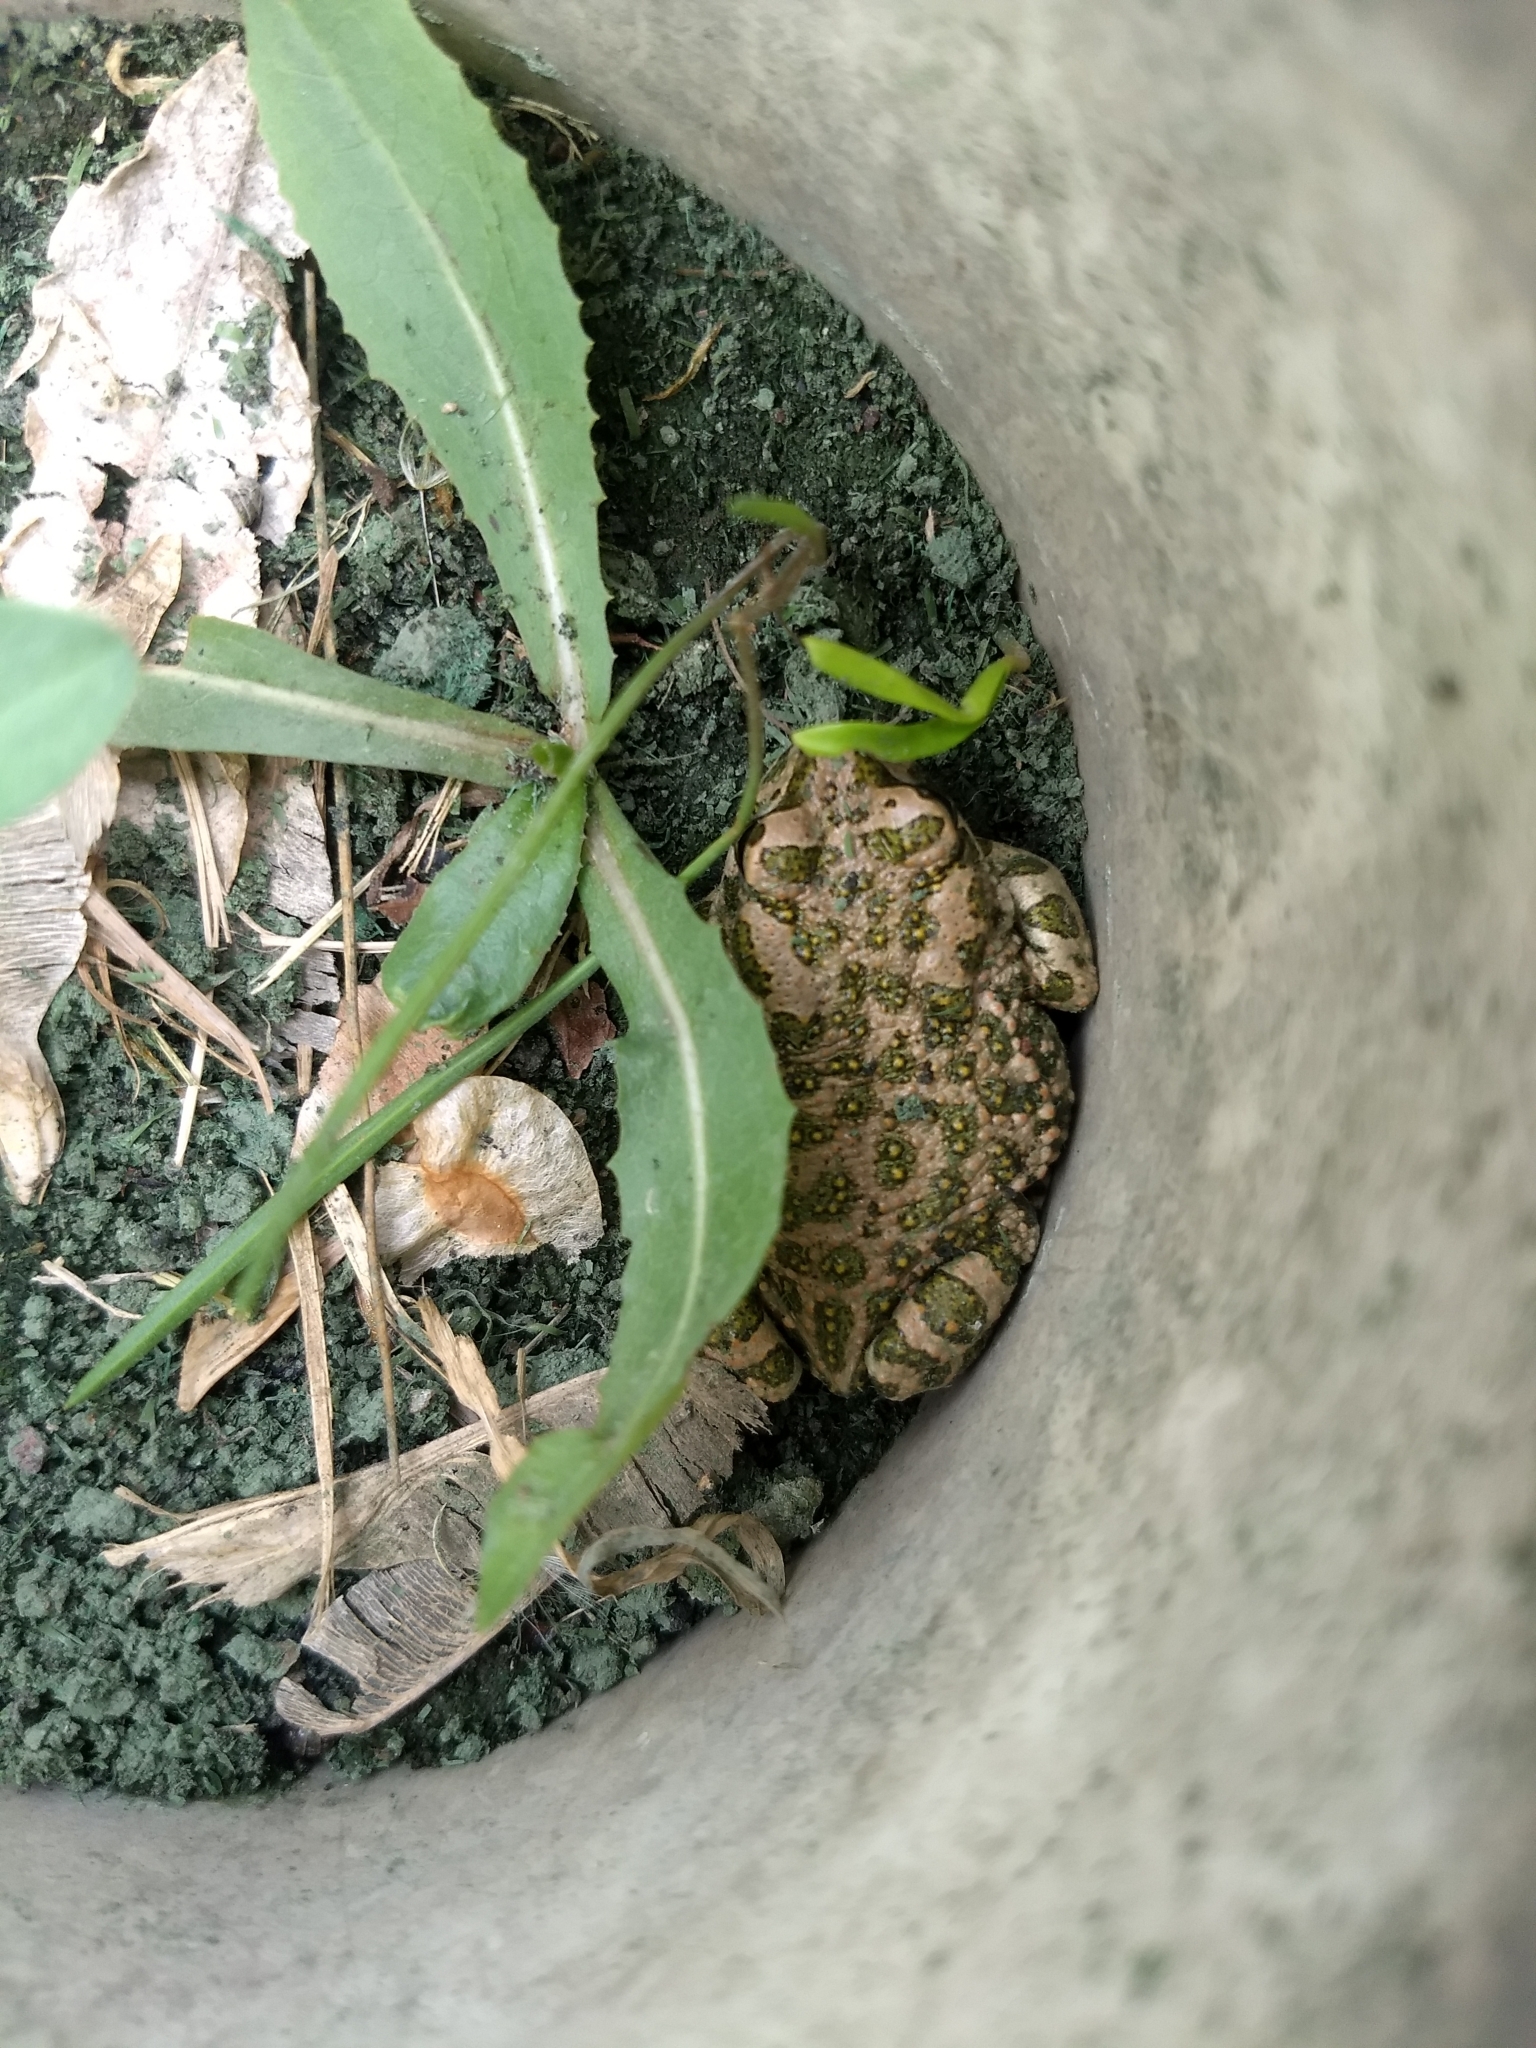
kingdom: Animalia
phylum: Chordata
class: Amphibia
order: Anura
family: Bufonidae
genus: Bufotes
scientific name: Bufotes viridis
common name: European green toad
